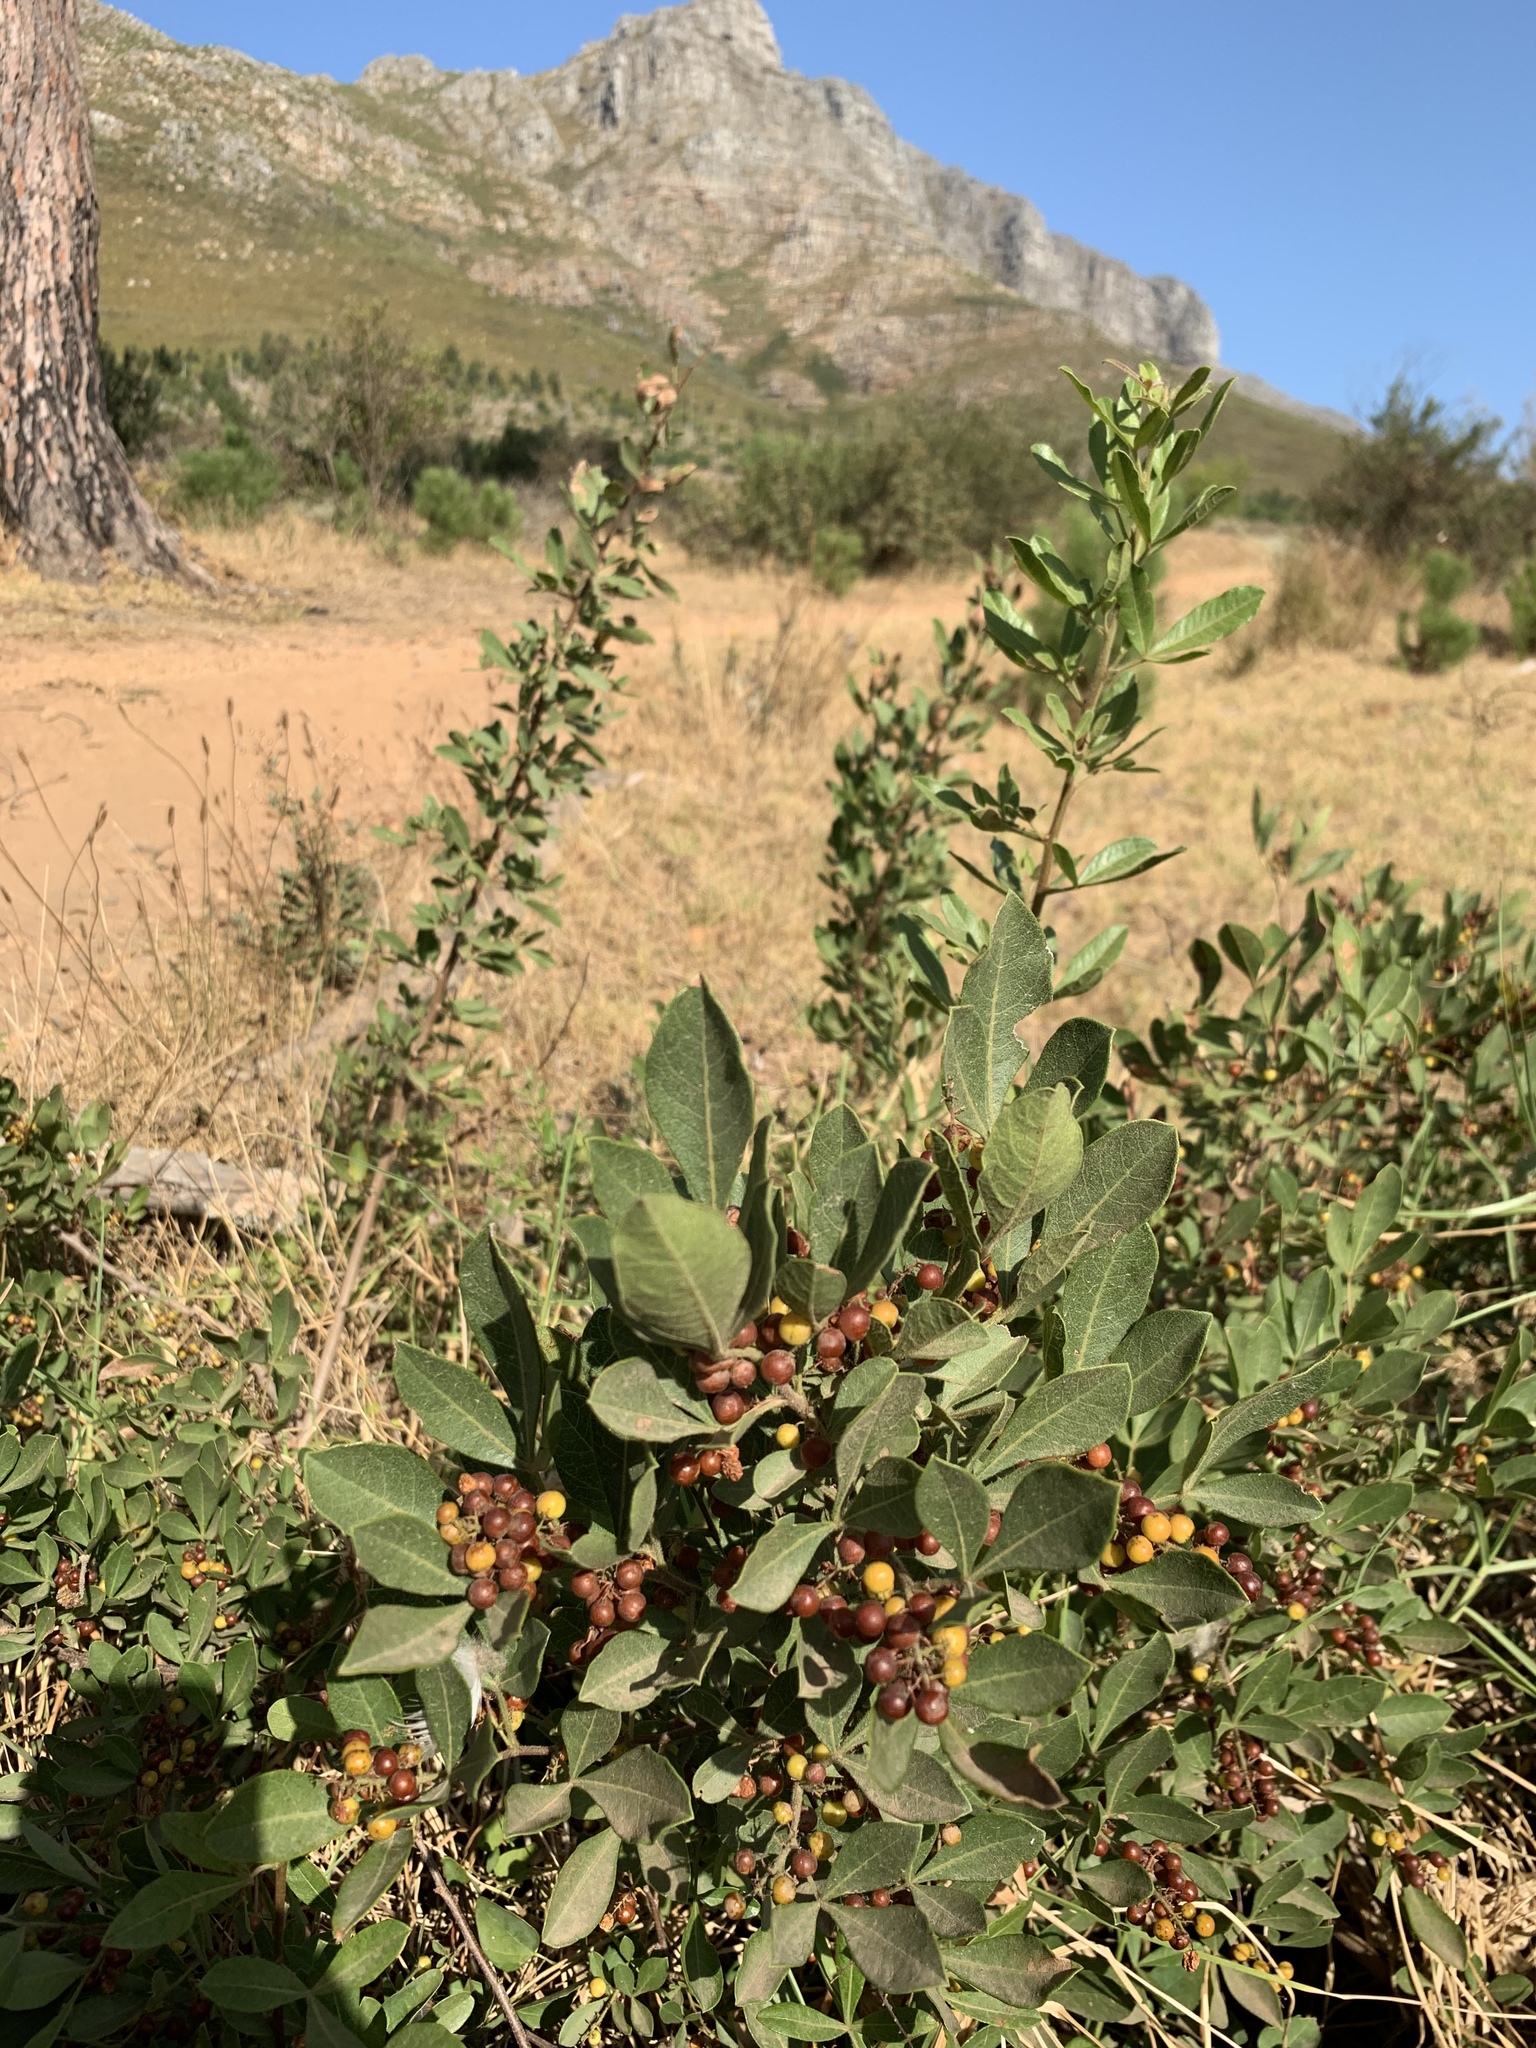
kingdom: Plantae
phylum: Tracheophyta
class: Magnoliopsida
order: Sapindales
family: Anacardiaceae
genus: Searsia
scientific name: Searsia laevigata
